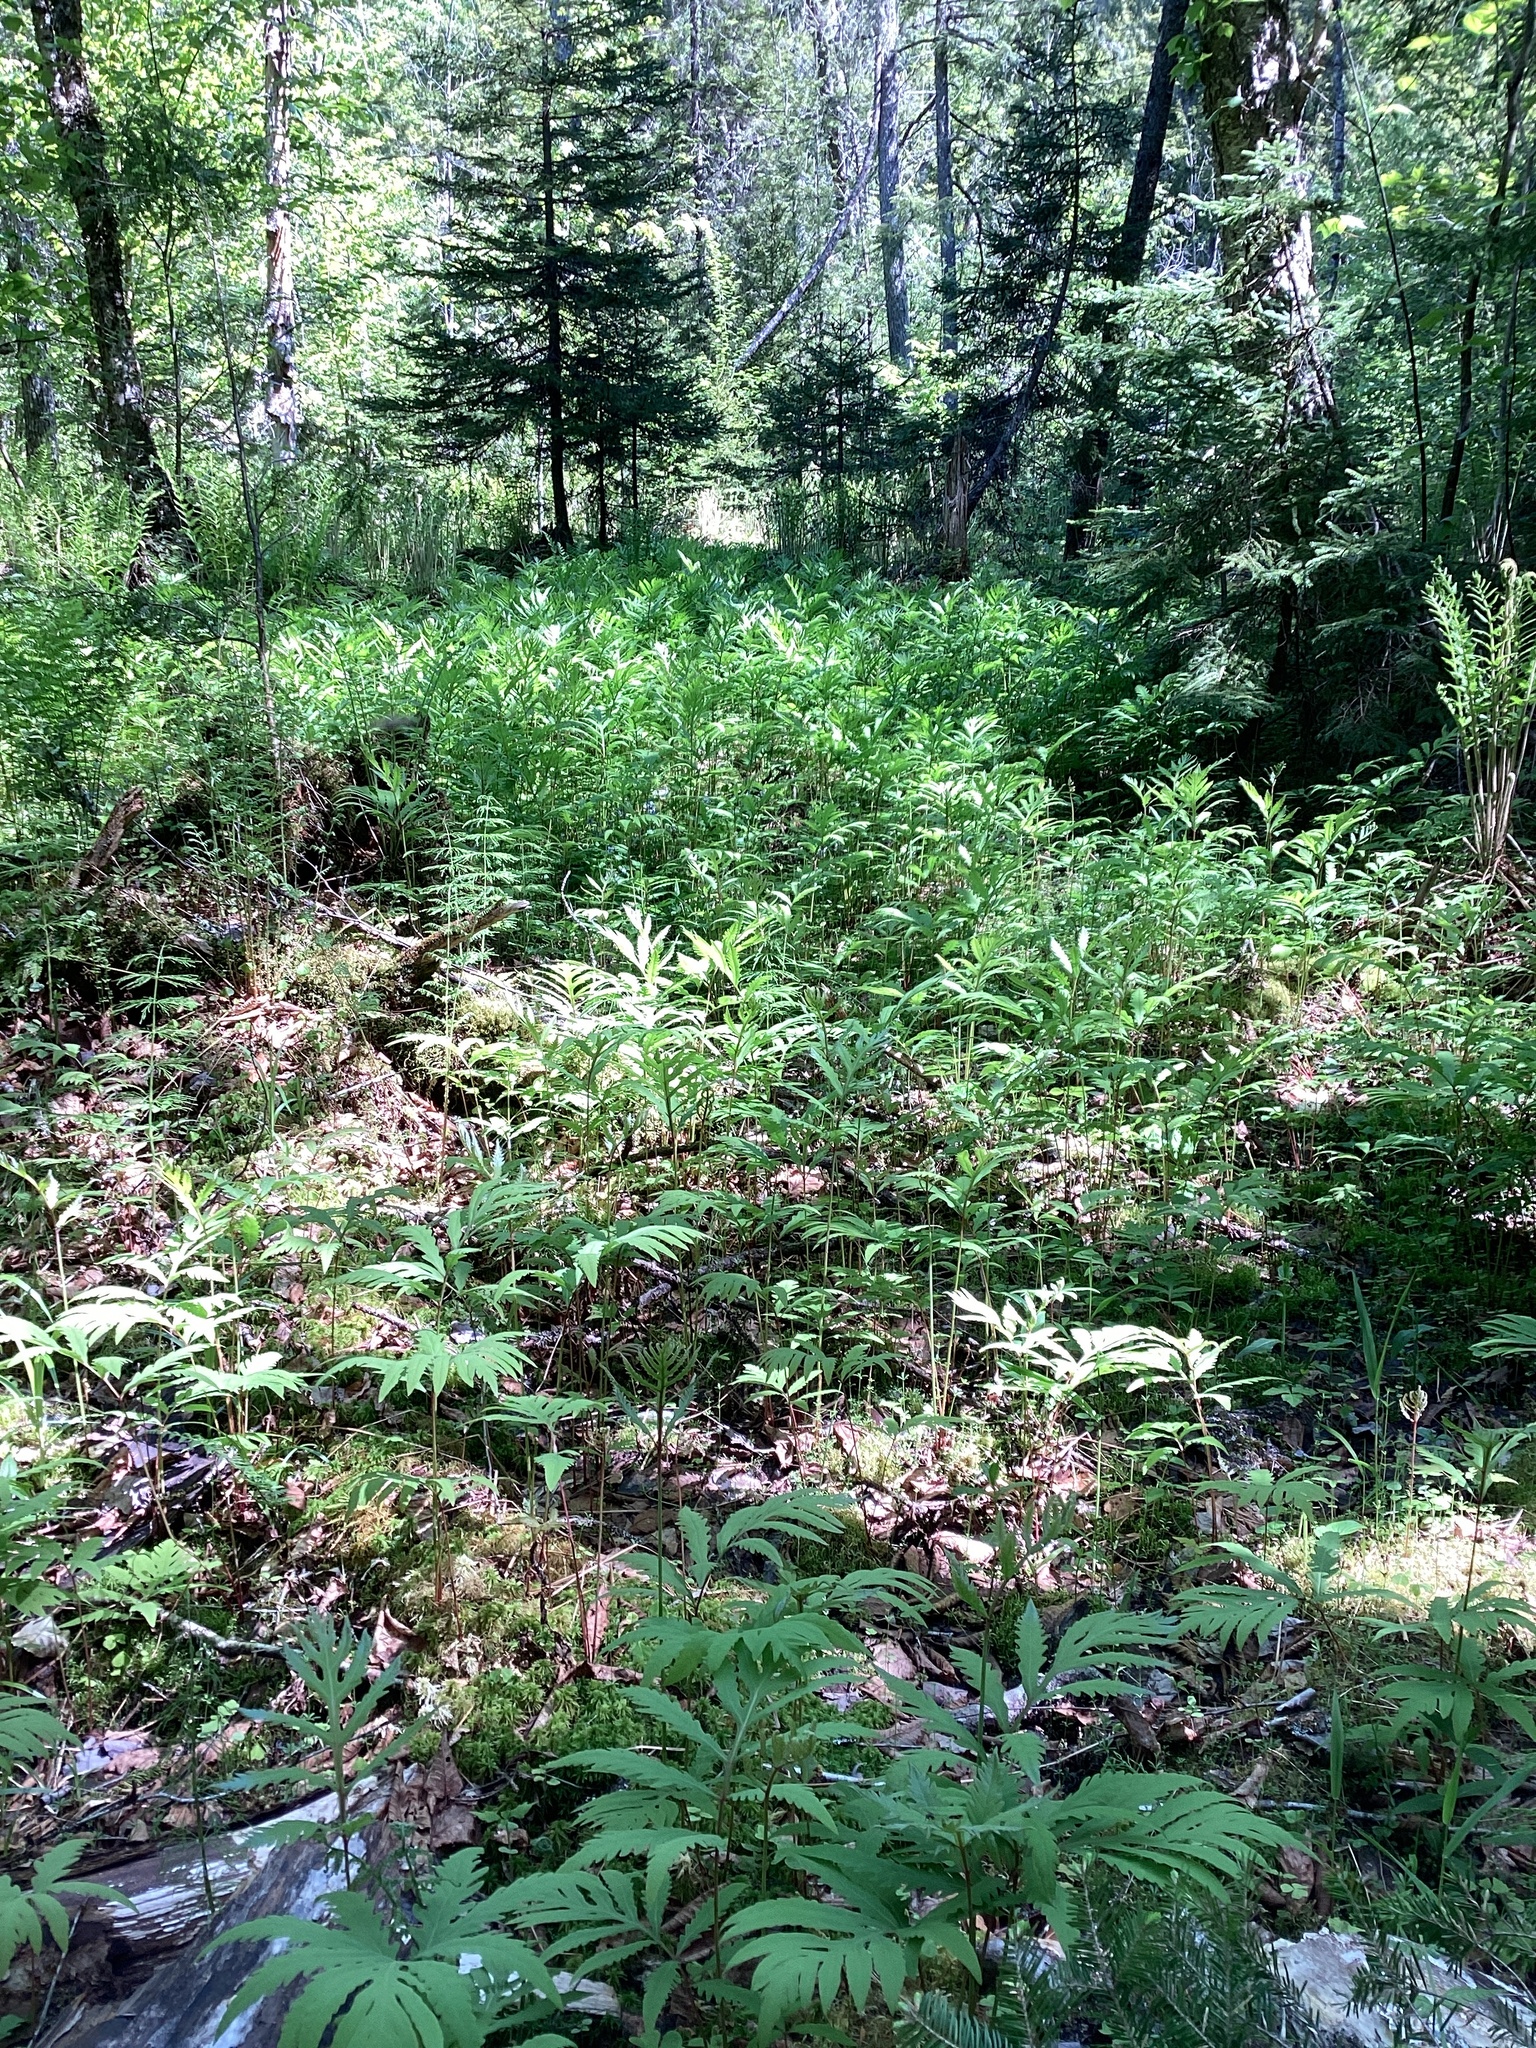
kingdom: Plantae
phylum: Tracheophyta
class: Polypodiopsida
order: Polypodiales
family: Onocleaceae
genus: Onoclea
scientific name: Onoclea sensibilis
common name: Sensitive fern
